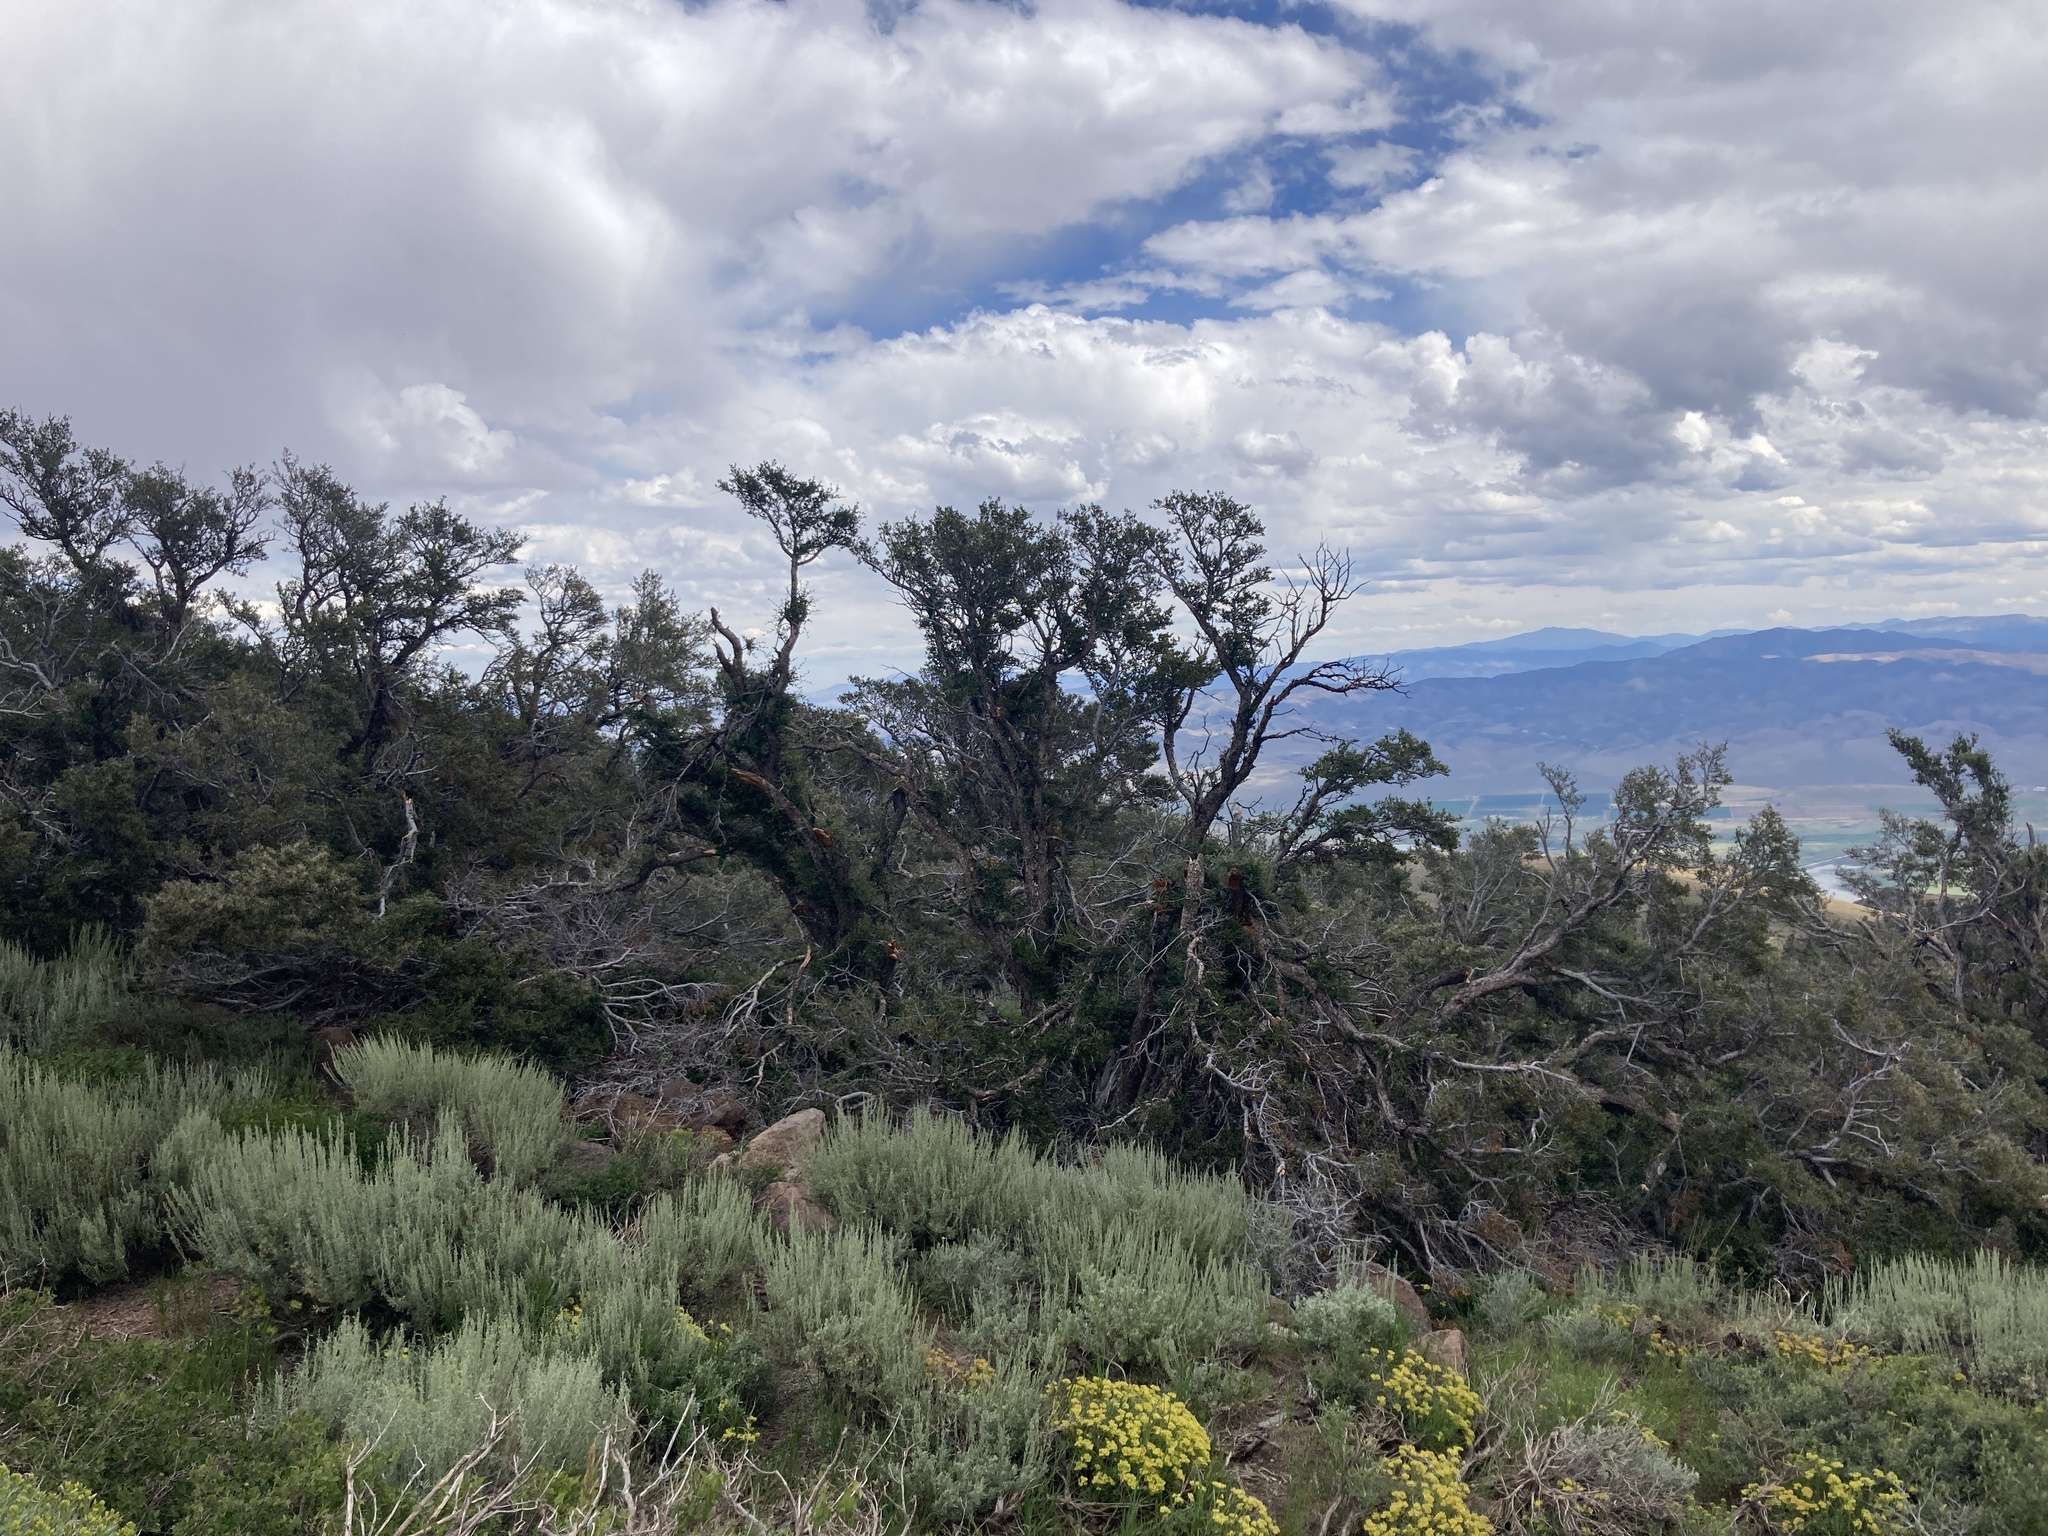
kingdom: Plantae
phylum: Tracheophyta
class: Magnoliopsida
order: Rosales
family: Rosaceae
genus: Cercocarpus
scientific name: Cercocarpus ledifolius
